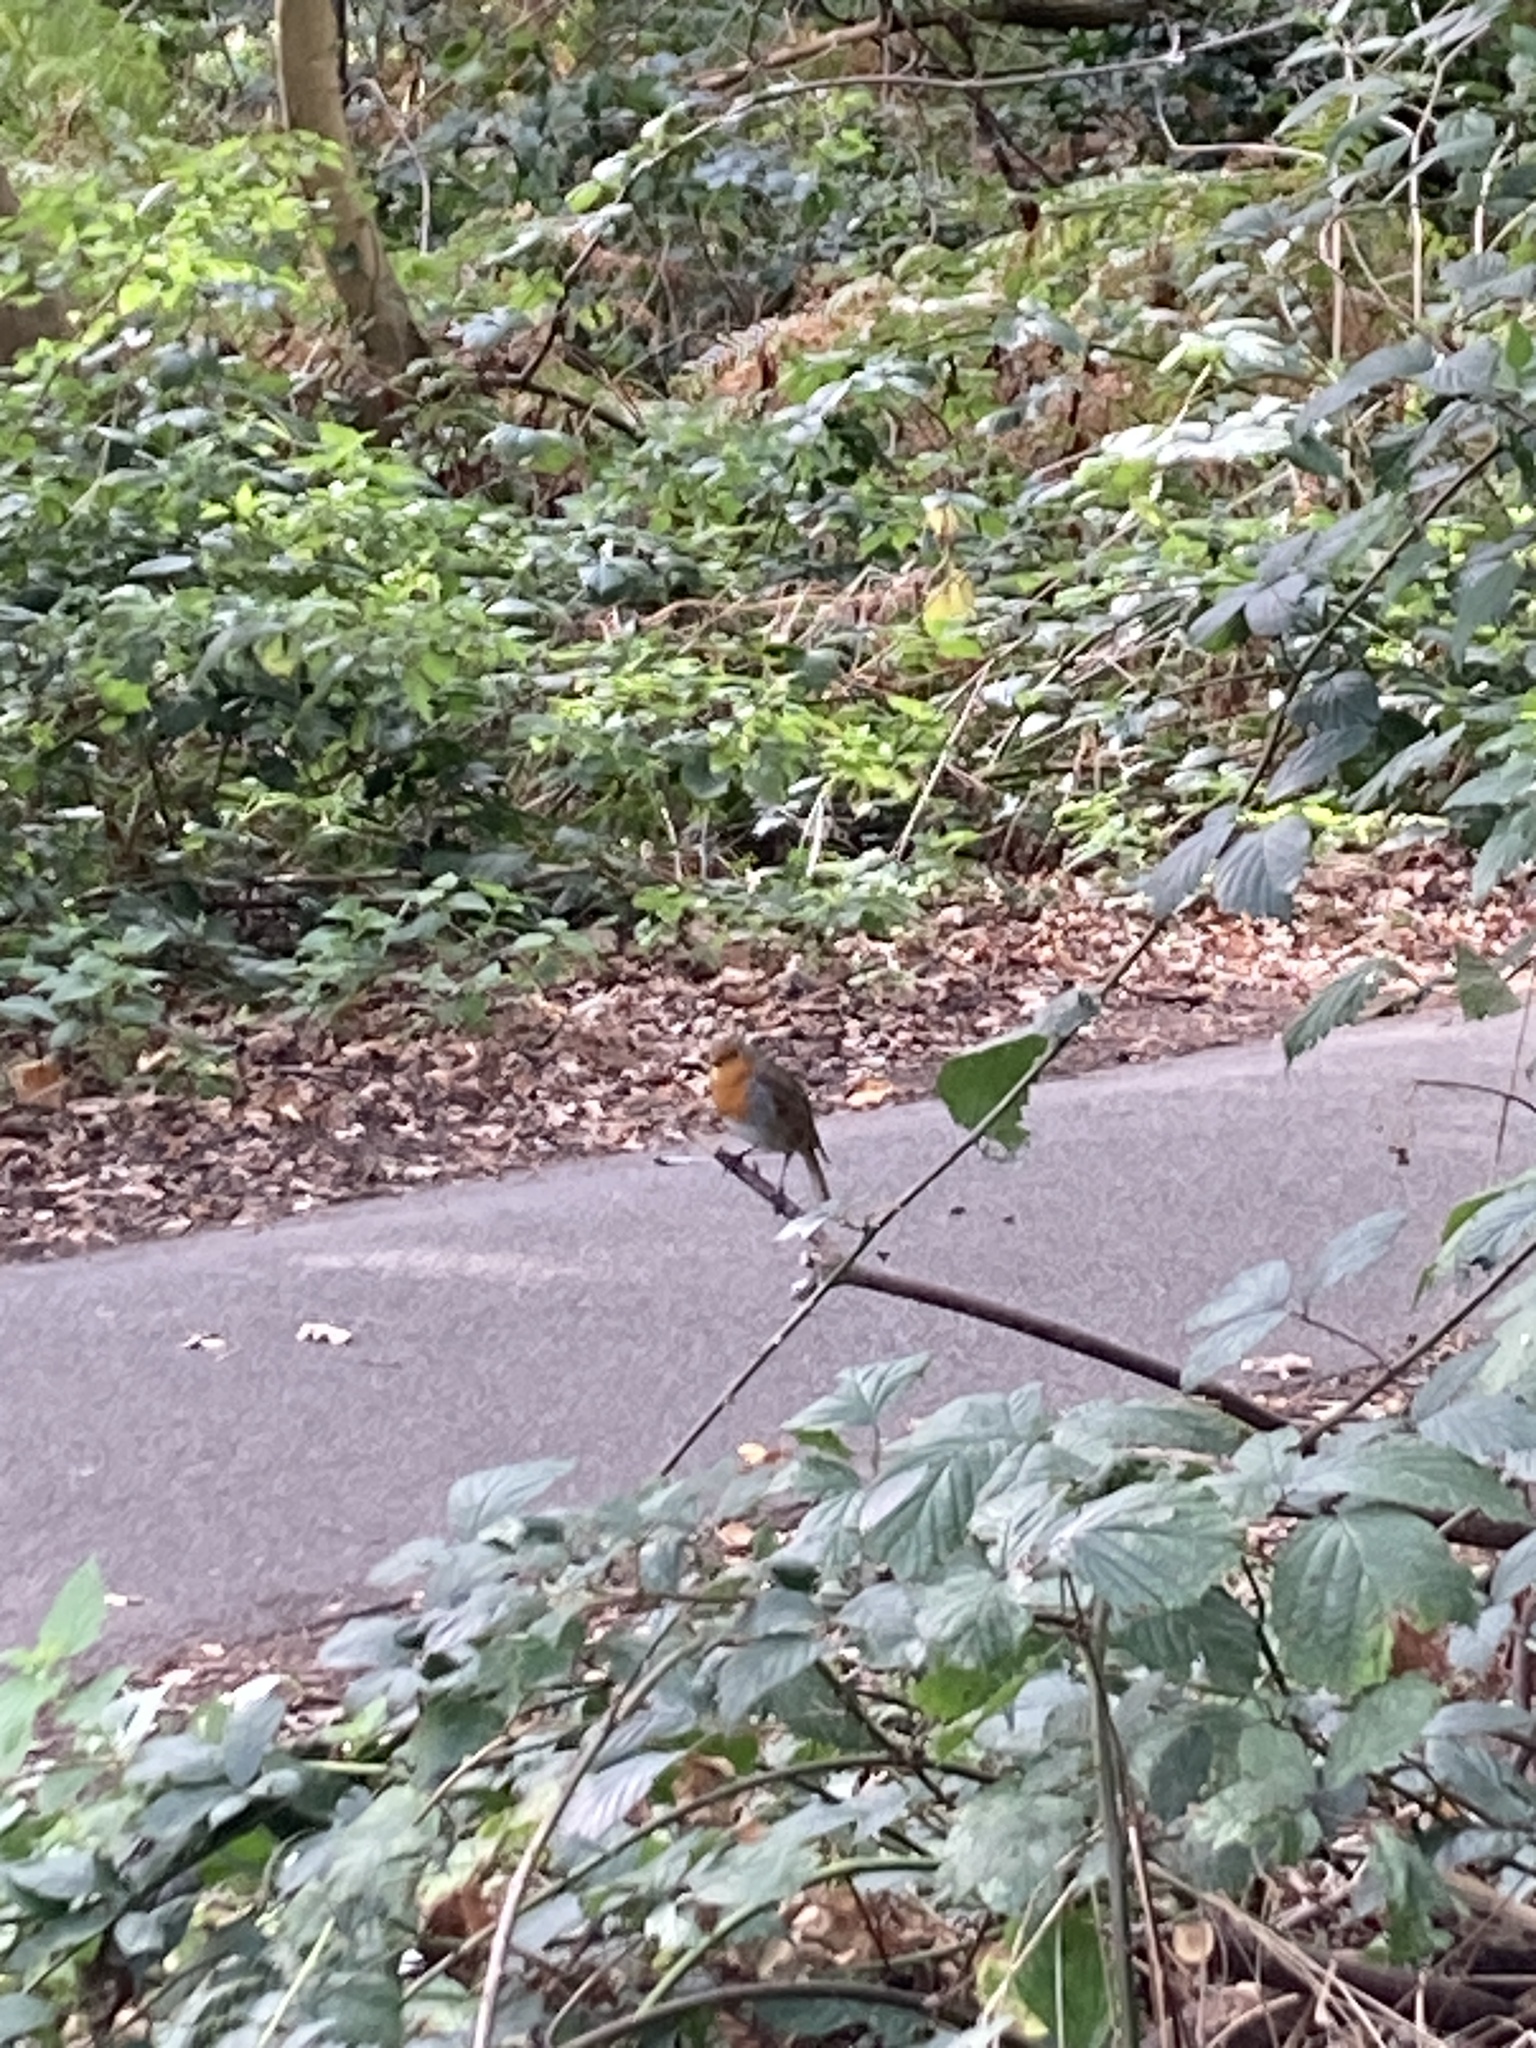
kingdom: Animalia
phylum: Chordata
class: Aves
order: Passeriformes
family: Muscicapidae
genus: Erithacus
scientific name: Erithacus rubecula
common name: European robin
